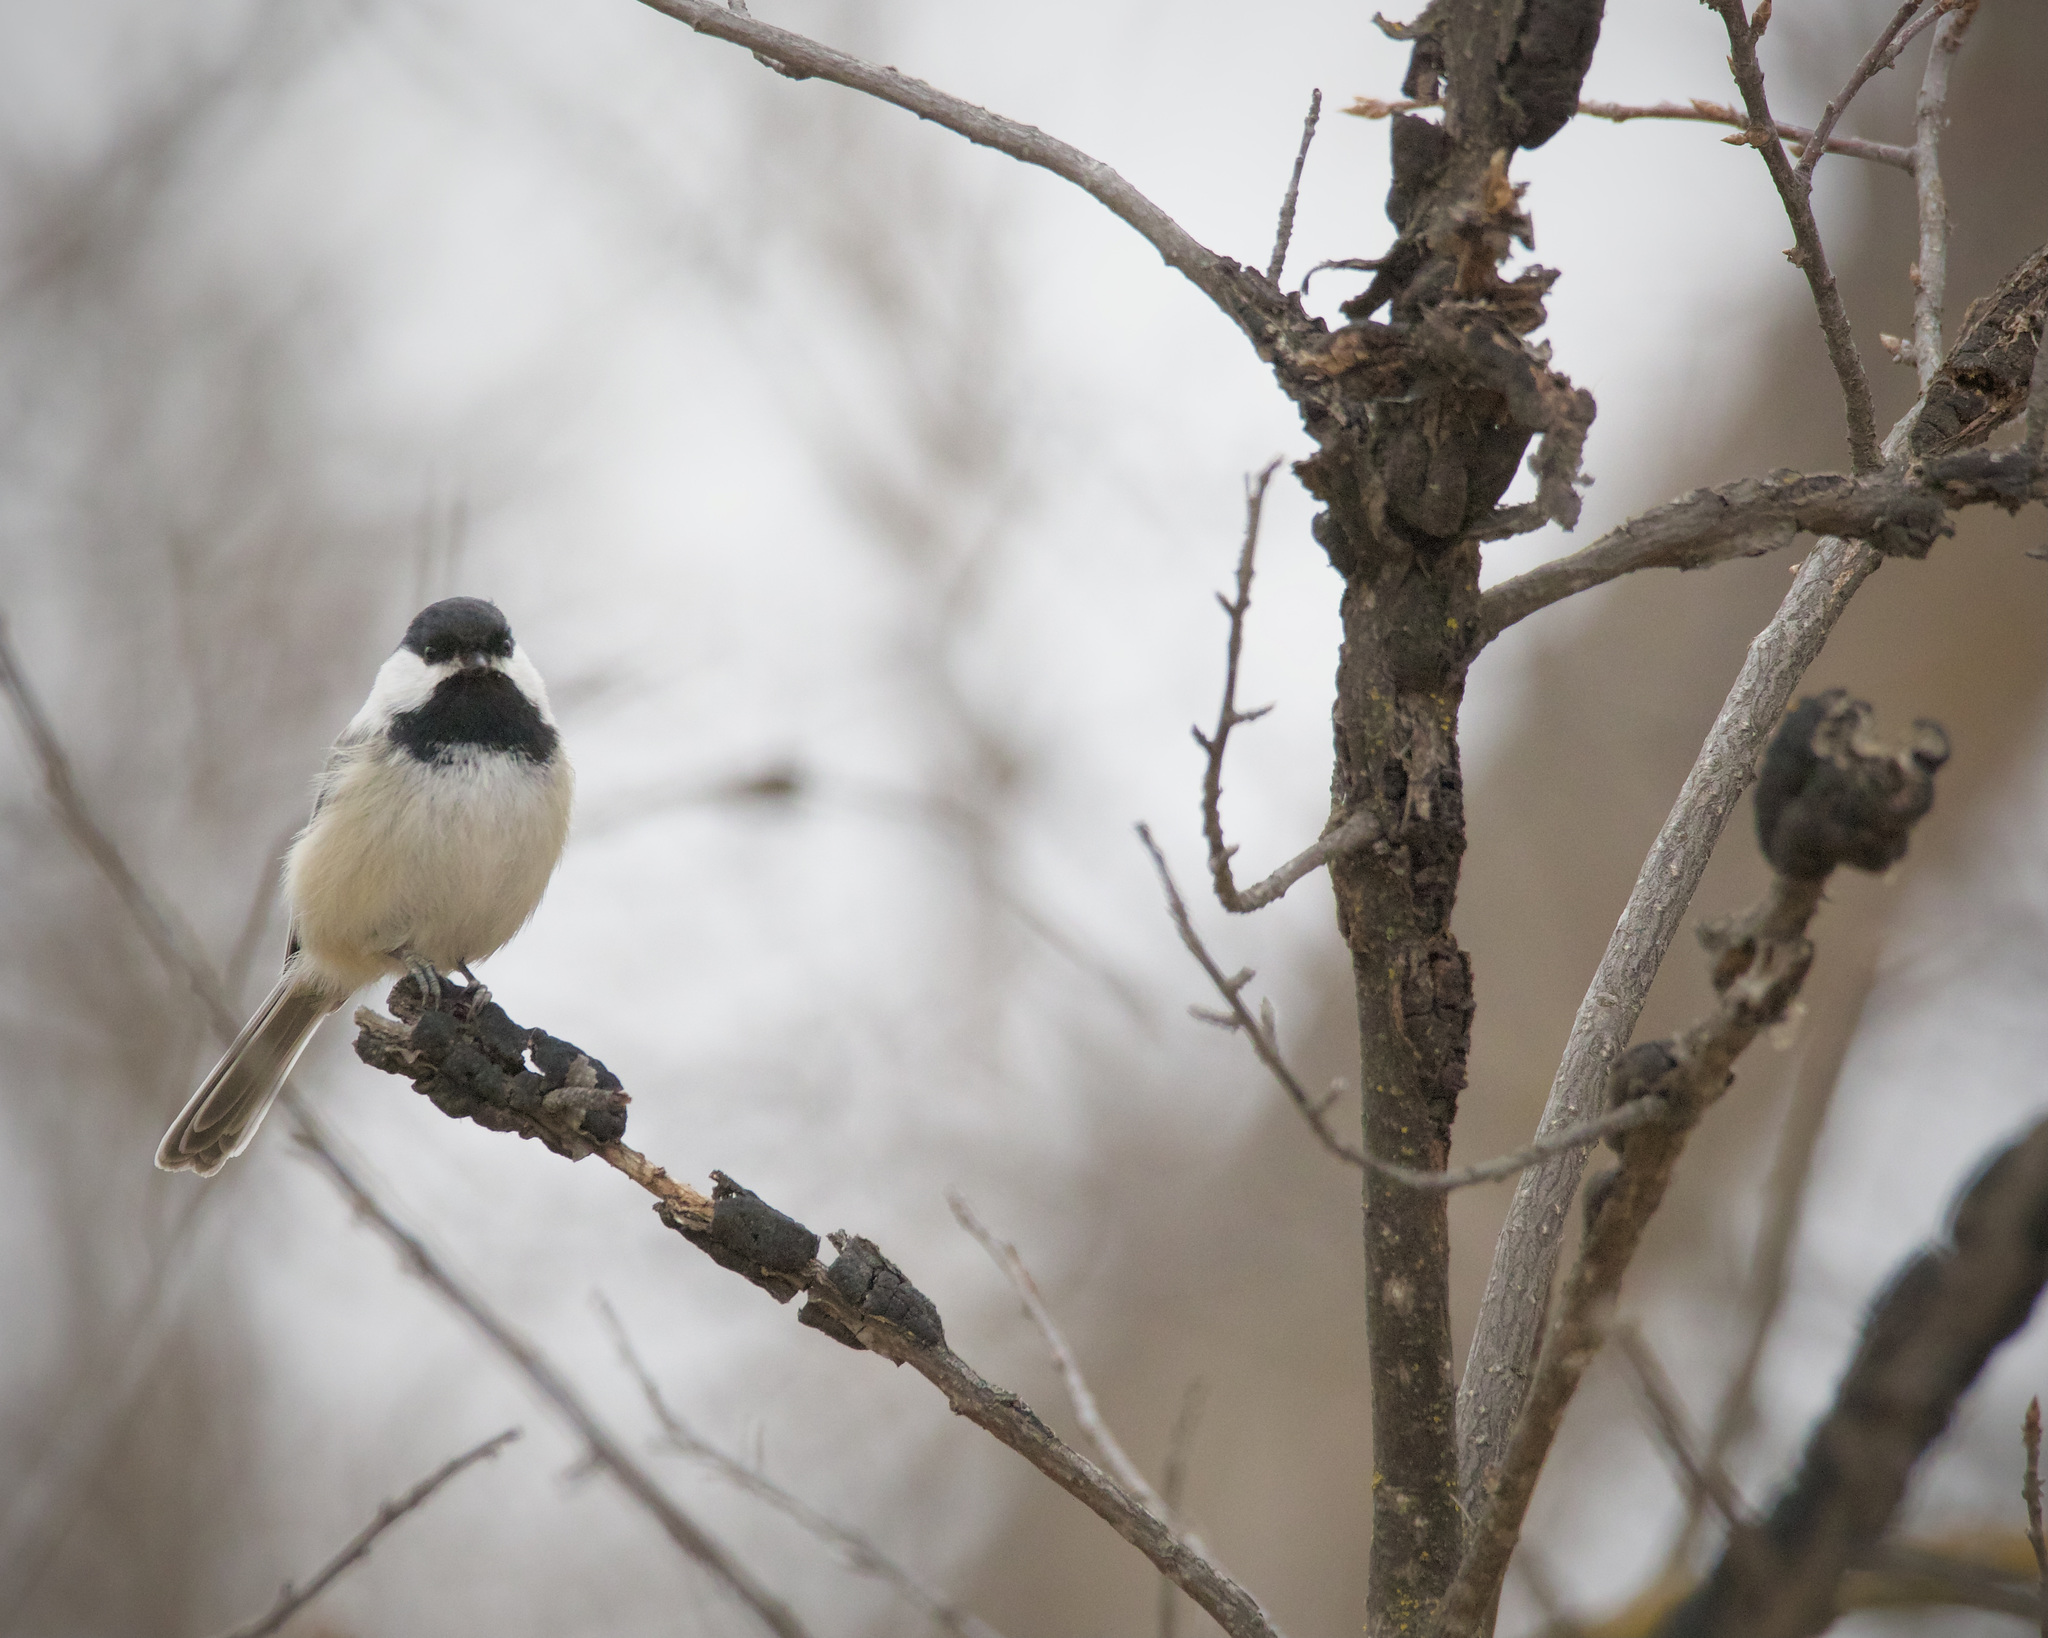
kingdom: Animalia
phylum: Chordata
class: Aves
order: Passeriformes
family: Paridae
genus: Poecile
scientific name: Poecile atricapillus
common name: Black-capped chickadee
